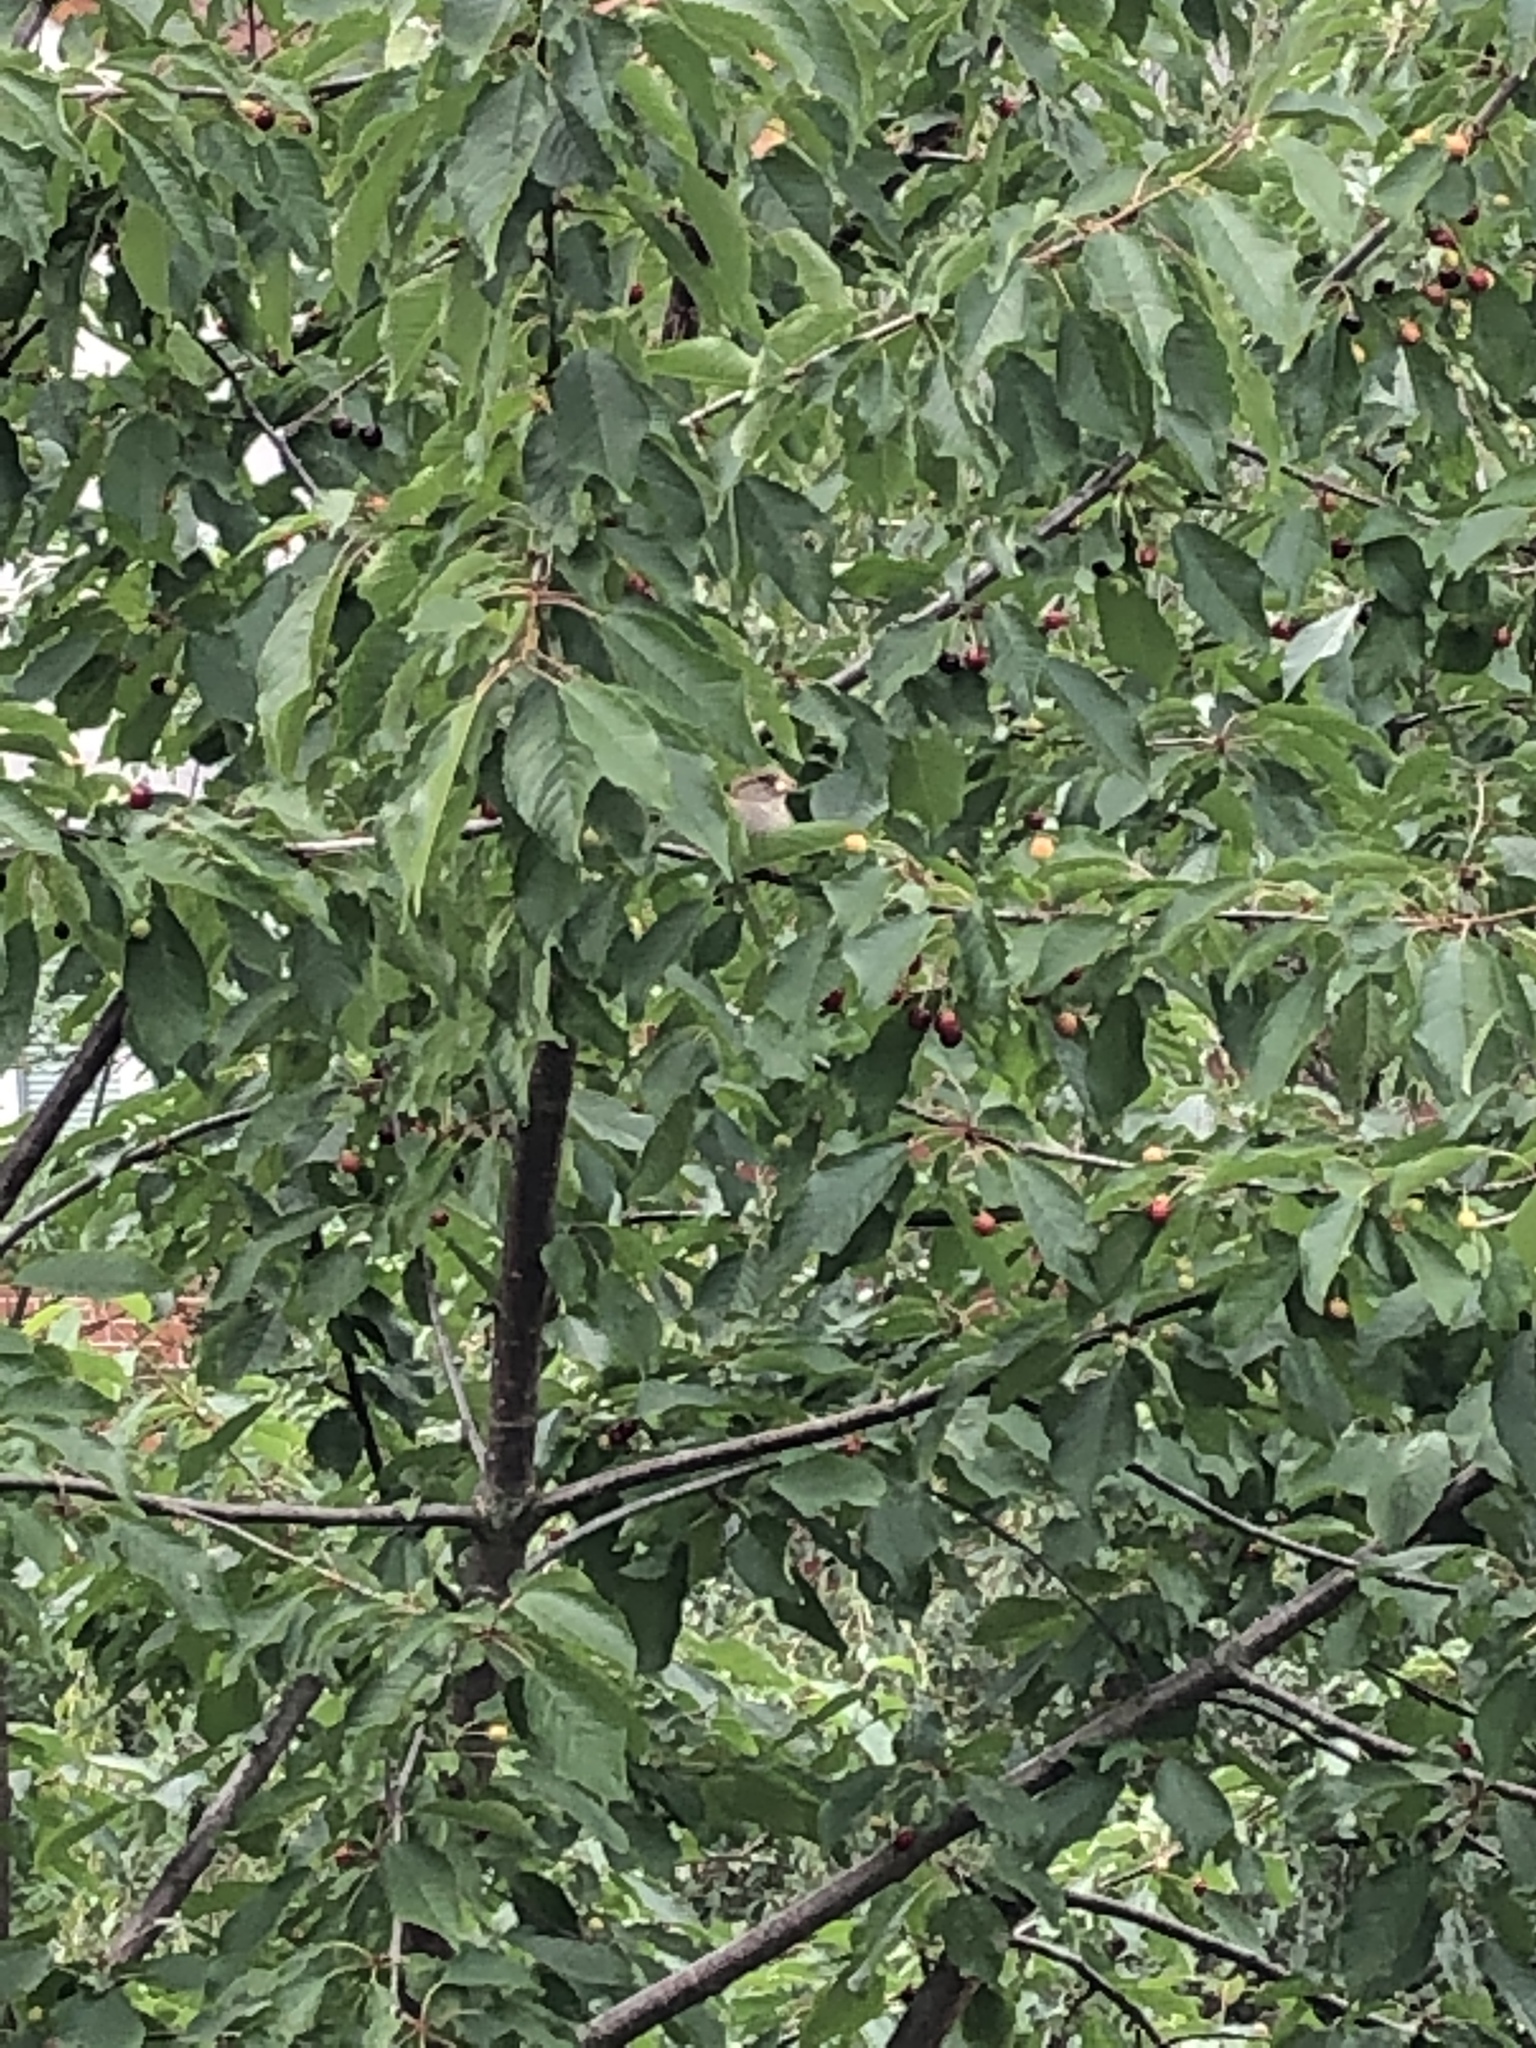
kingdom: Animalia
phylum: Chordata
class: Aves
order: Passeriformes
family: Passeridae
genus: Passer
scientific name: Passer domesticus
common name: House sparrow
